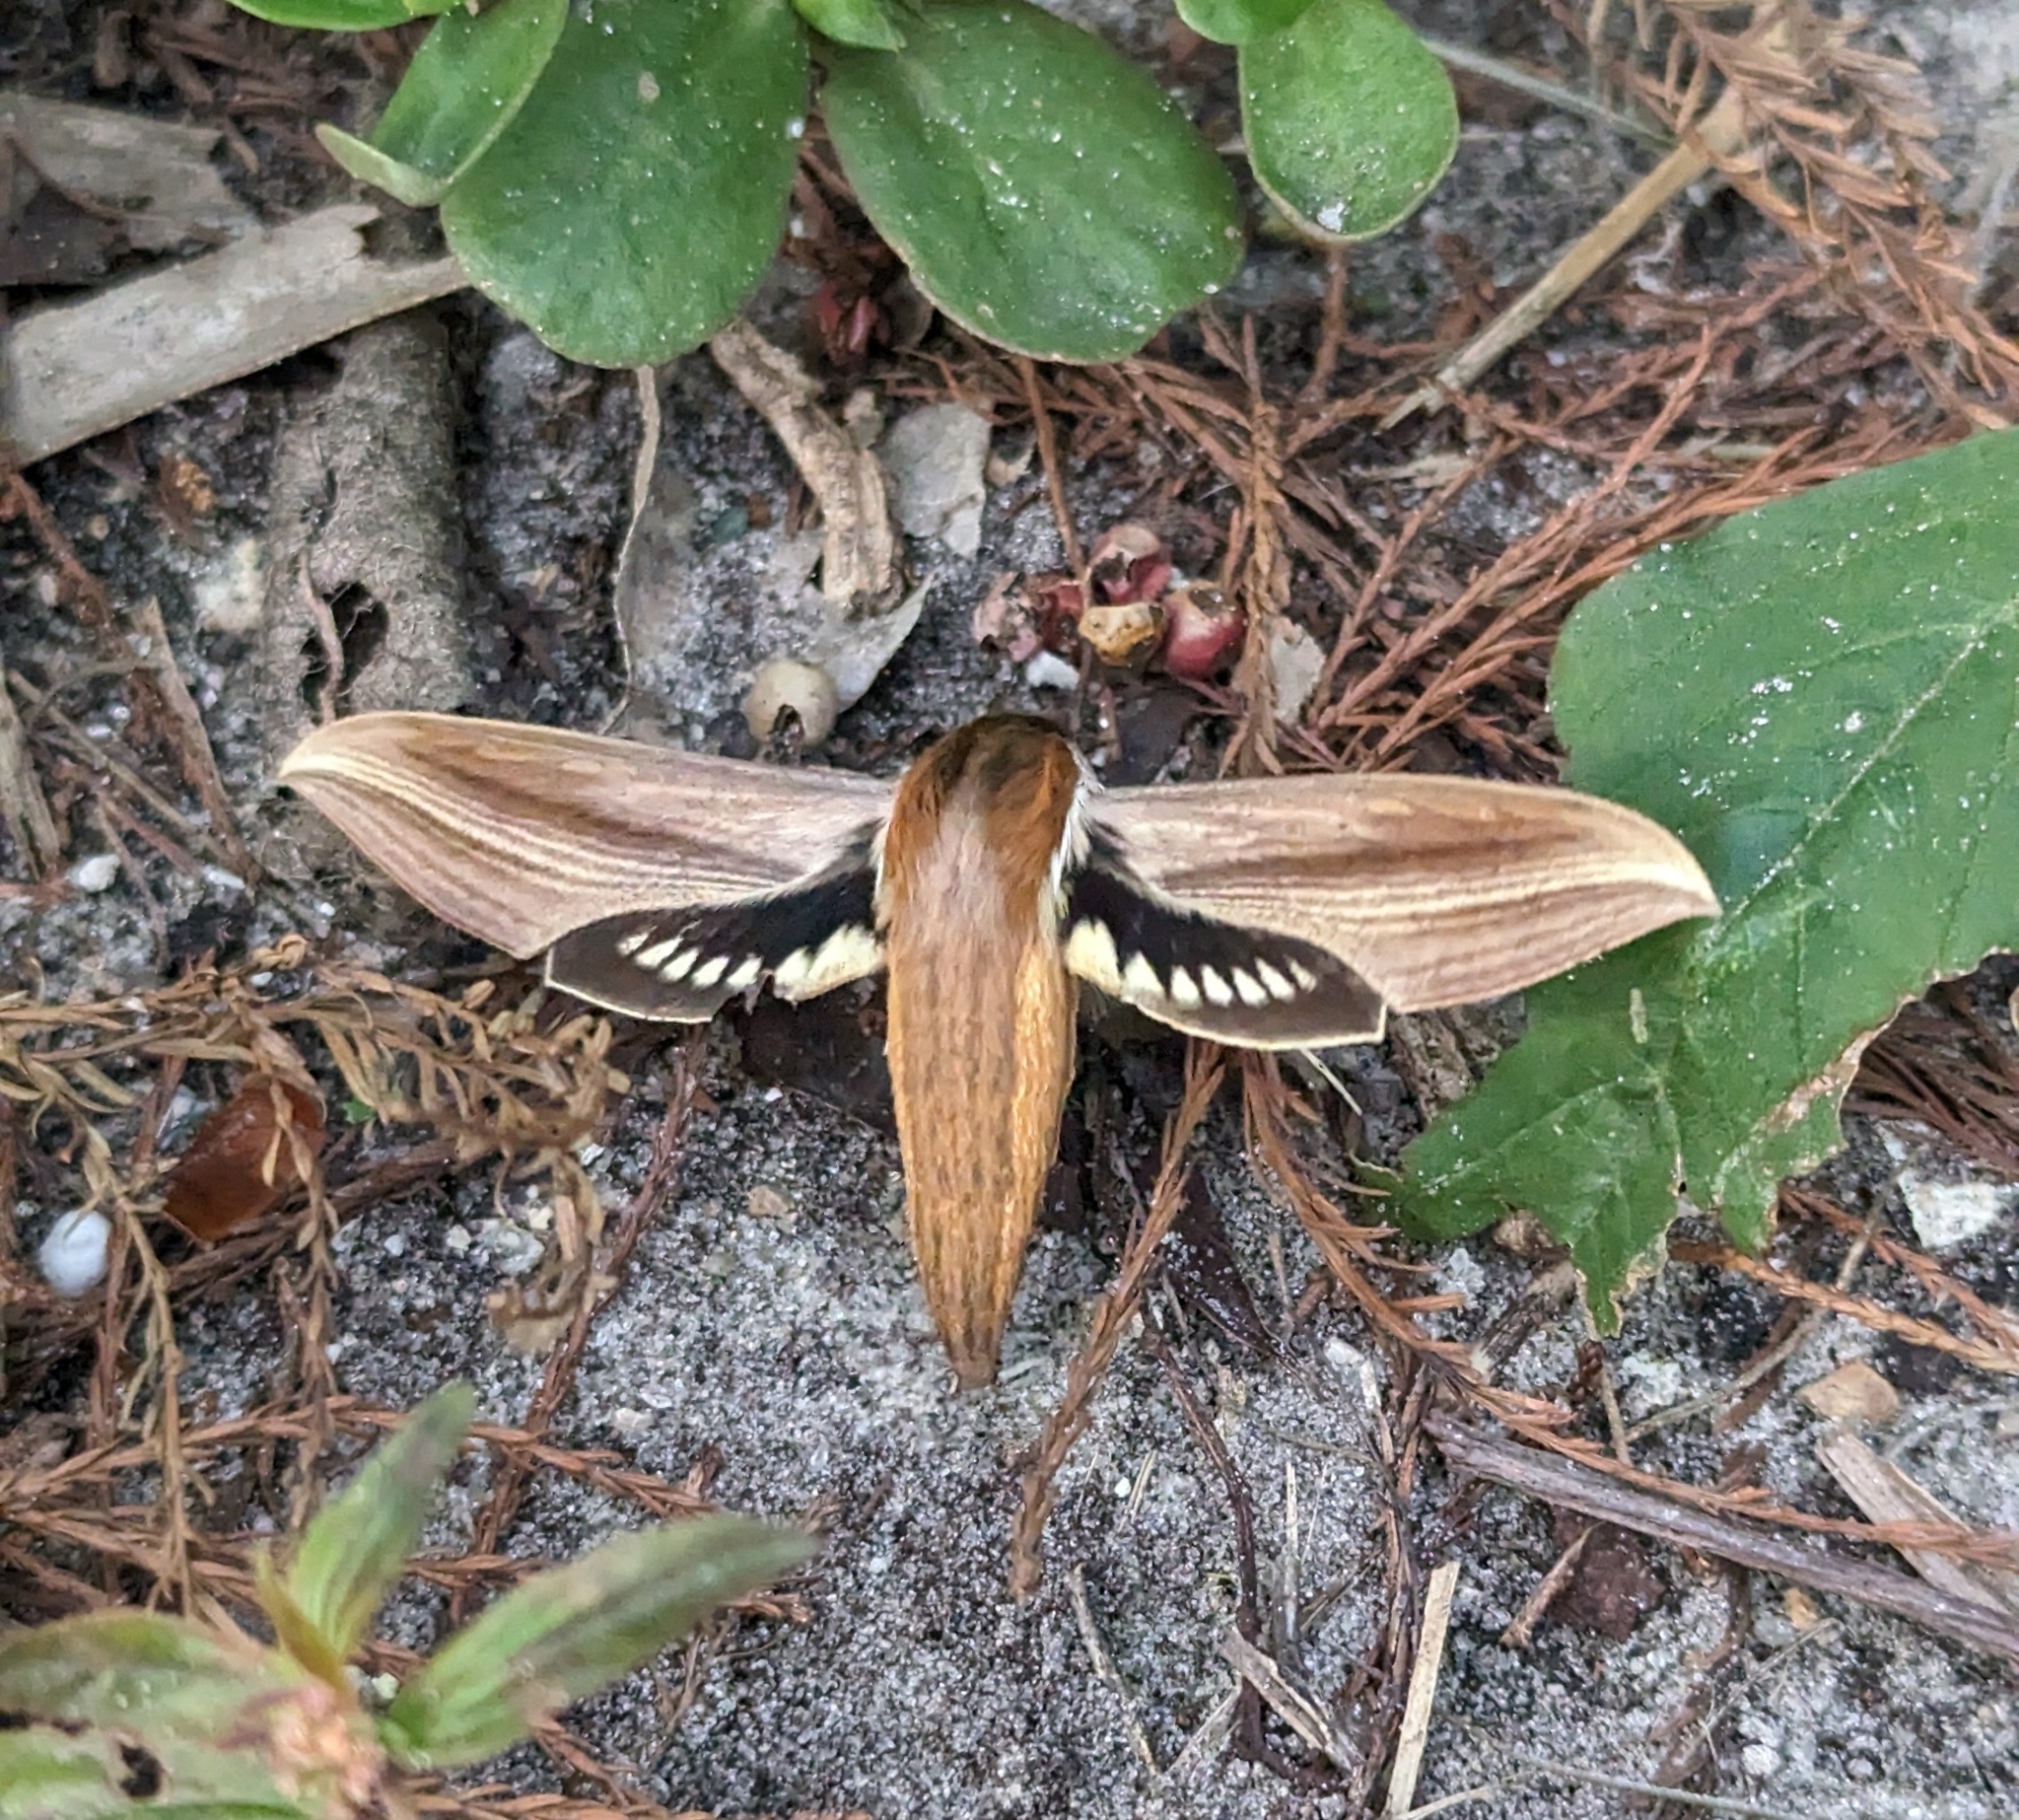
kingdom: Animalia
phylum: Arthropoda
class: Insecta
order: Lepidoptera
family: Sphingidae
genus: Xylophanes
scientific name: Xylophanes tersa
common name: Tersa sphinx
